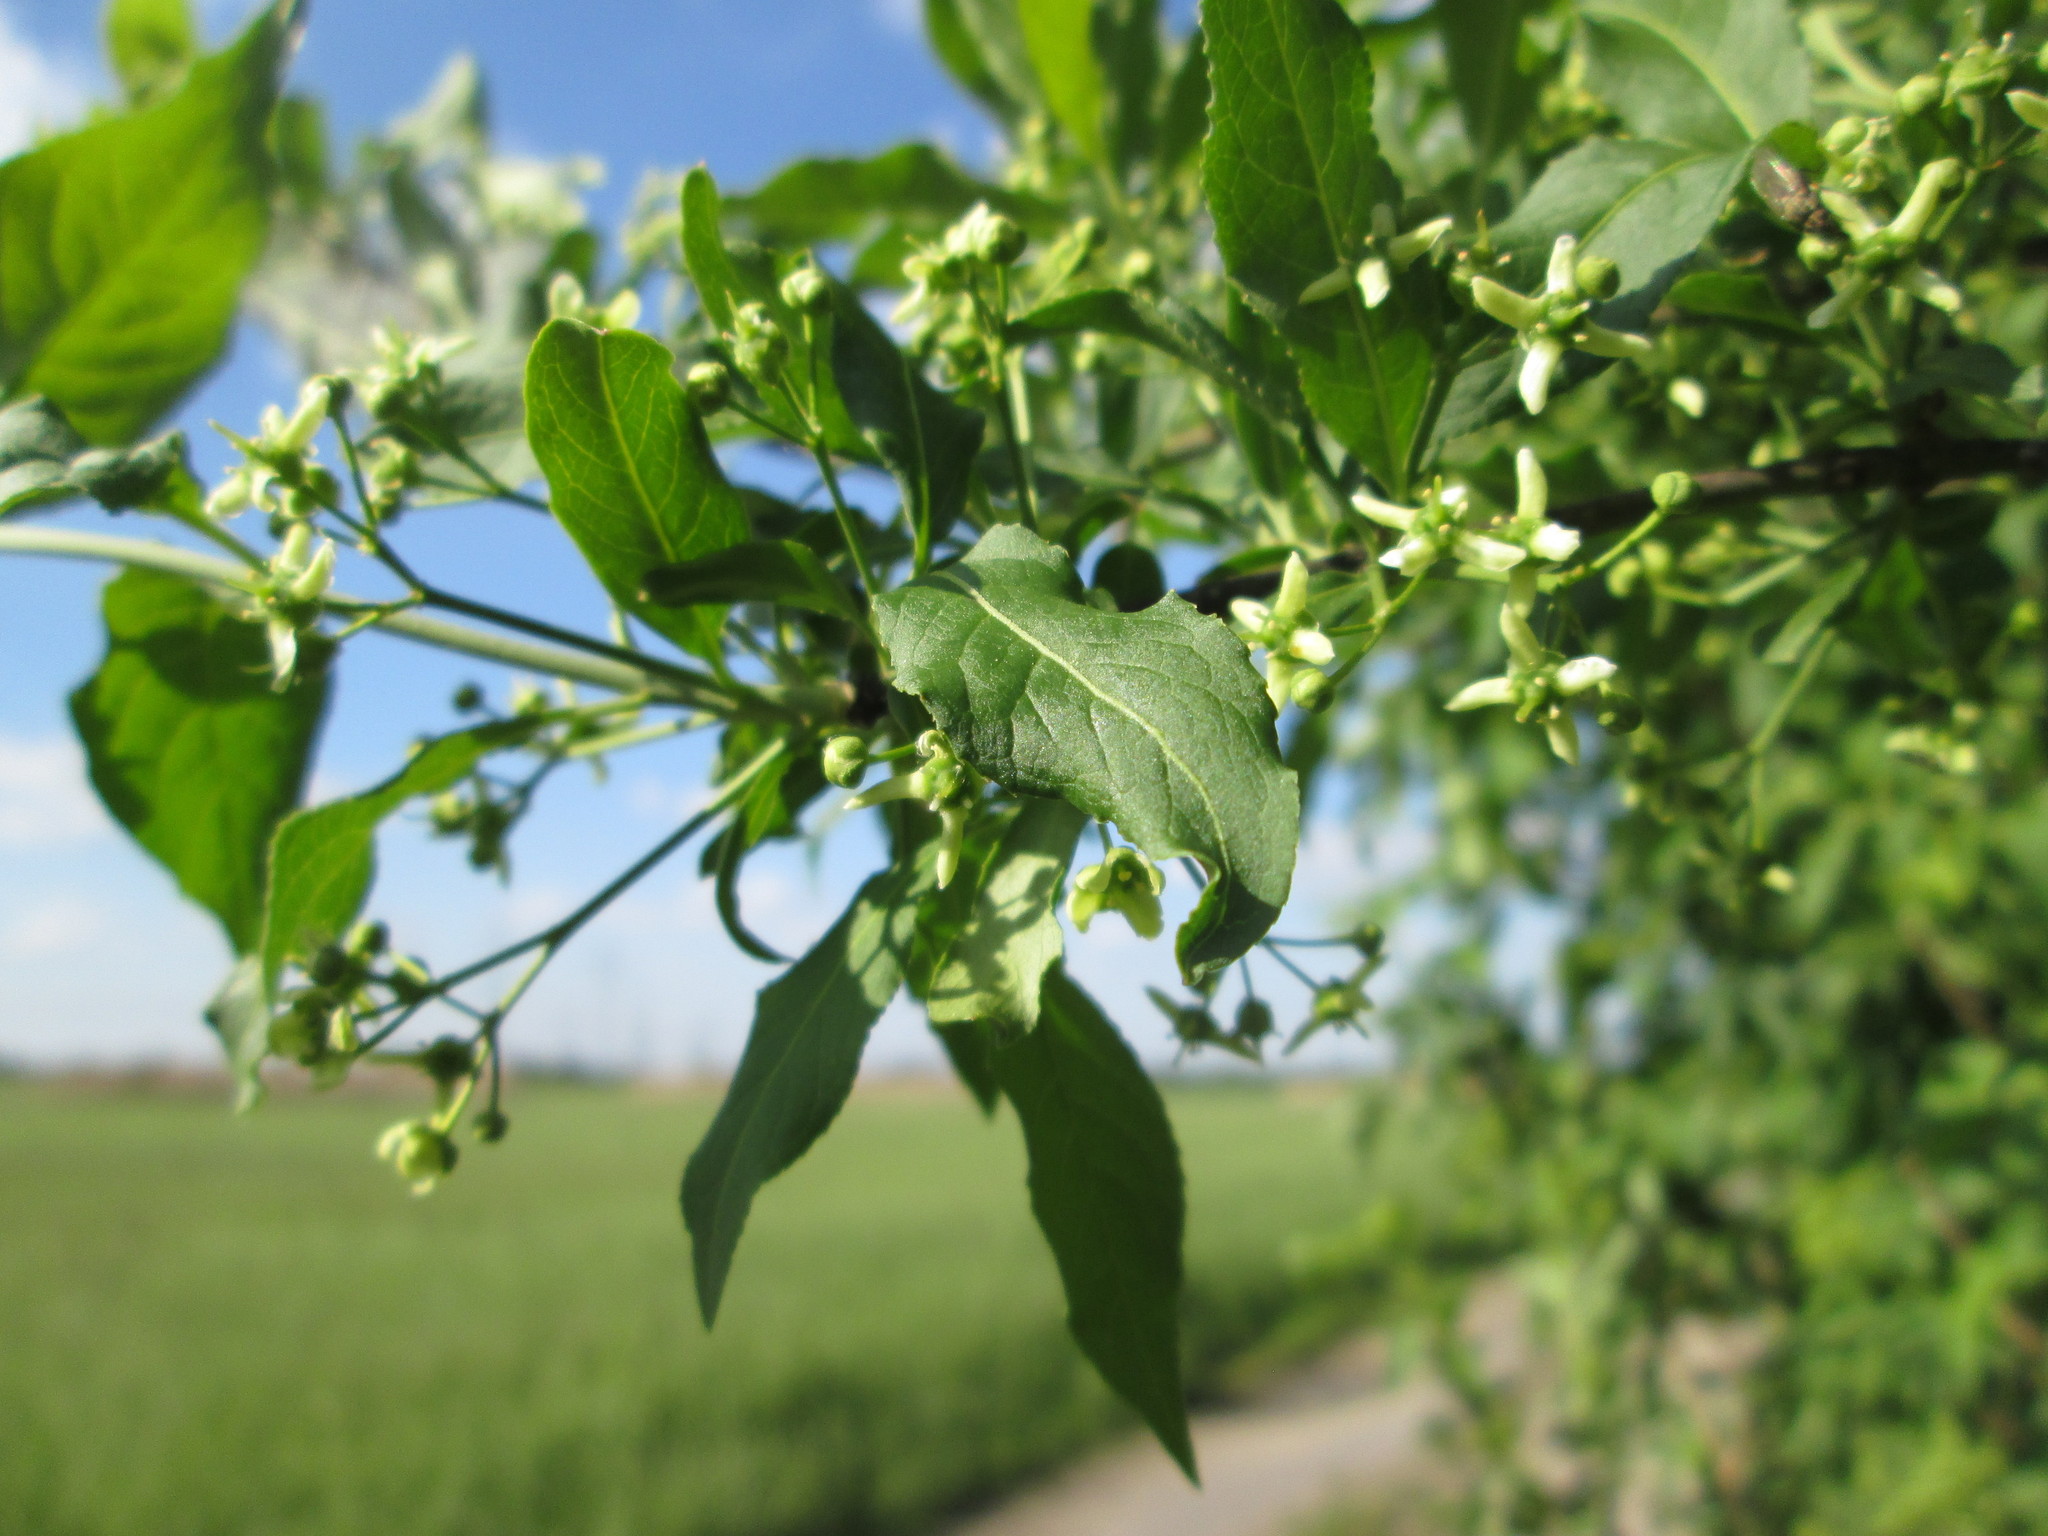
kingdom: Plantae
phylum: Tracheophyta
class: Magnoliopsida
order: Celastrales
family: Celastraceae
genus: Euonymus
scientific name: Euonymus europaeus
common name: Spindle
